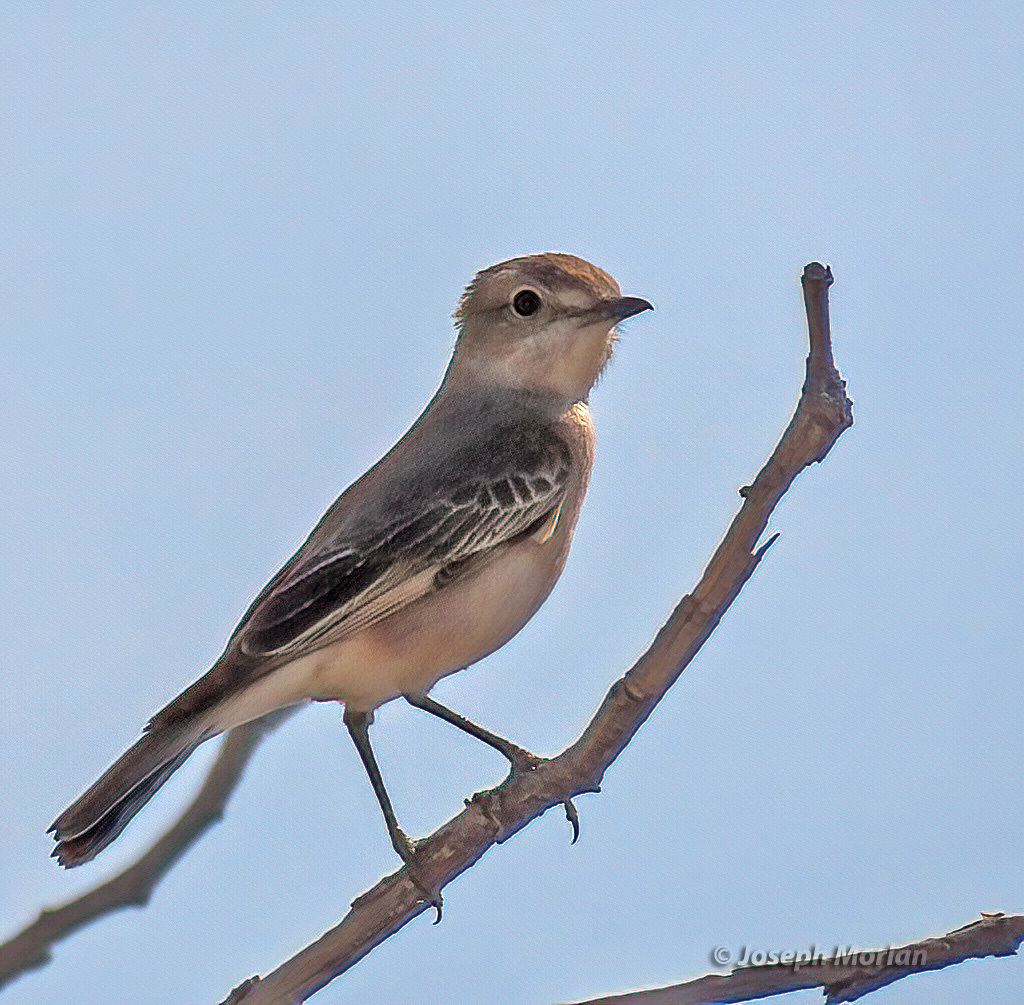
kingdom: Animalia
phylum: Chordata
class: Aves
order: Passeriformes
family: Muscicapidae
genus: Bradornis
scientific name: Bradornis infuscatus
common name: Chat flycatcher
